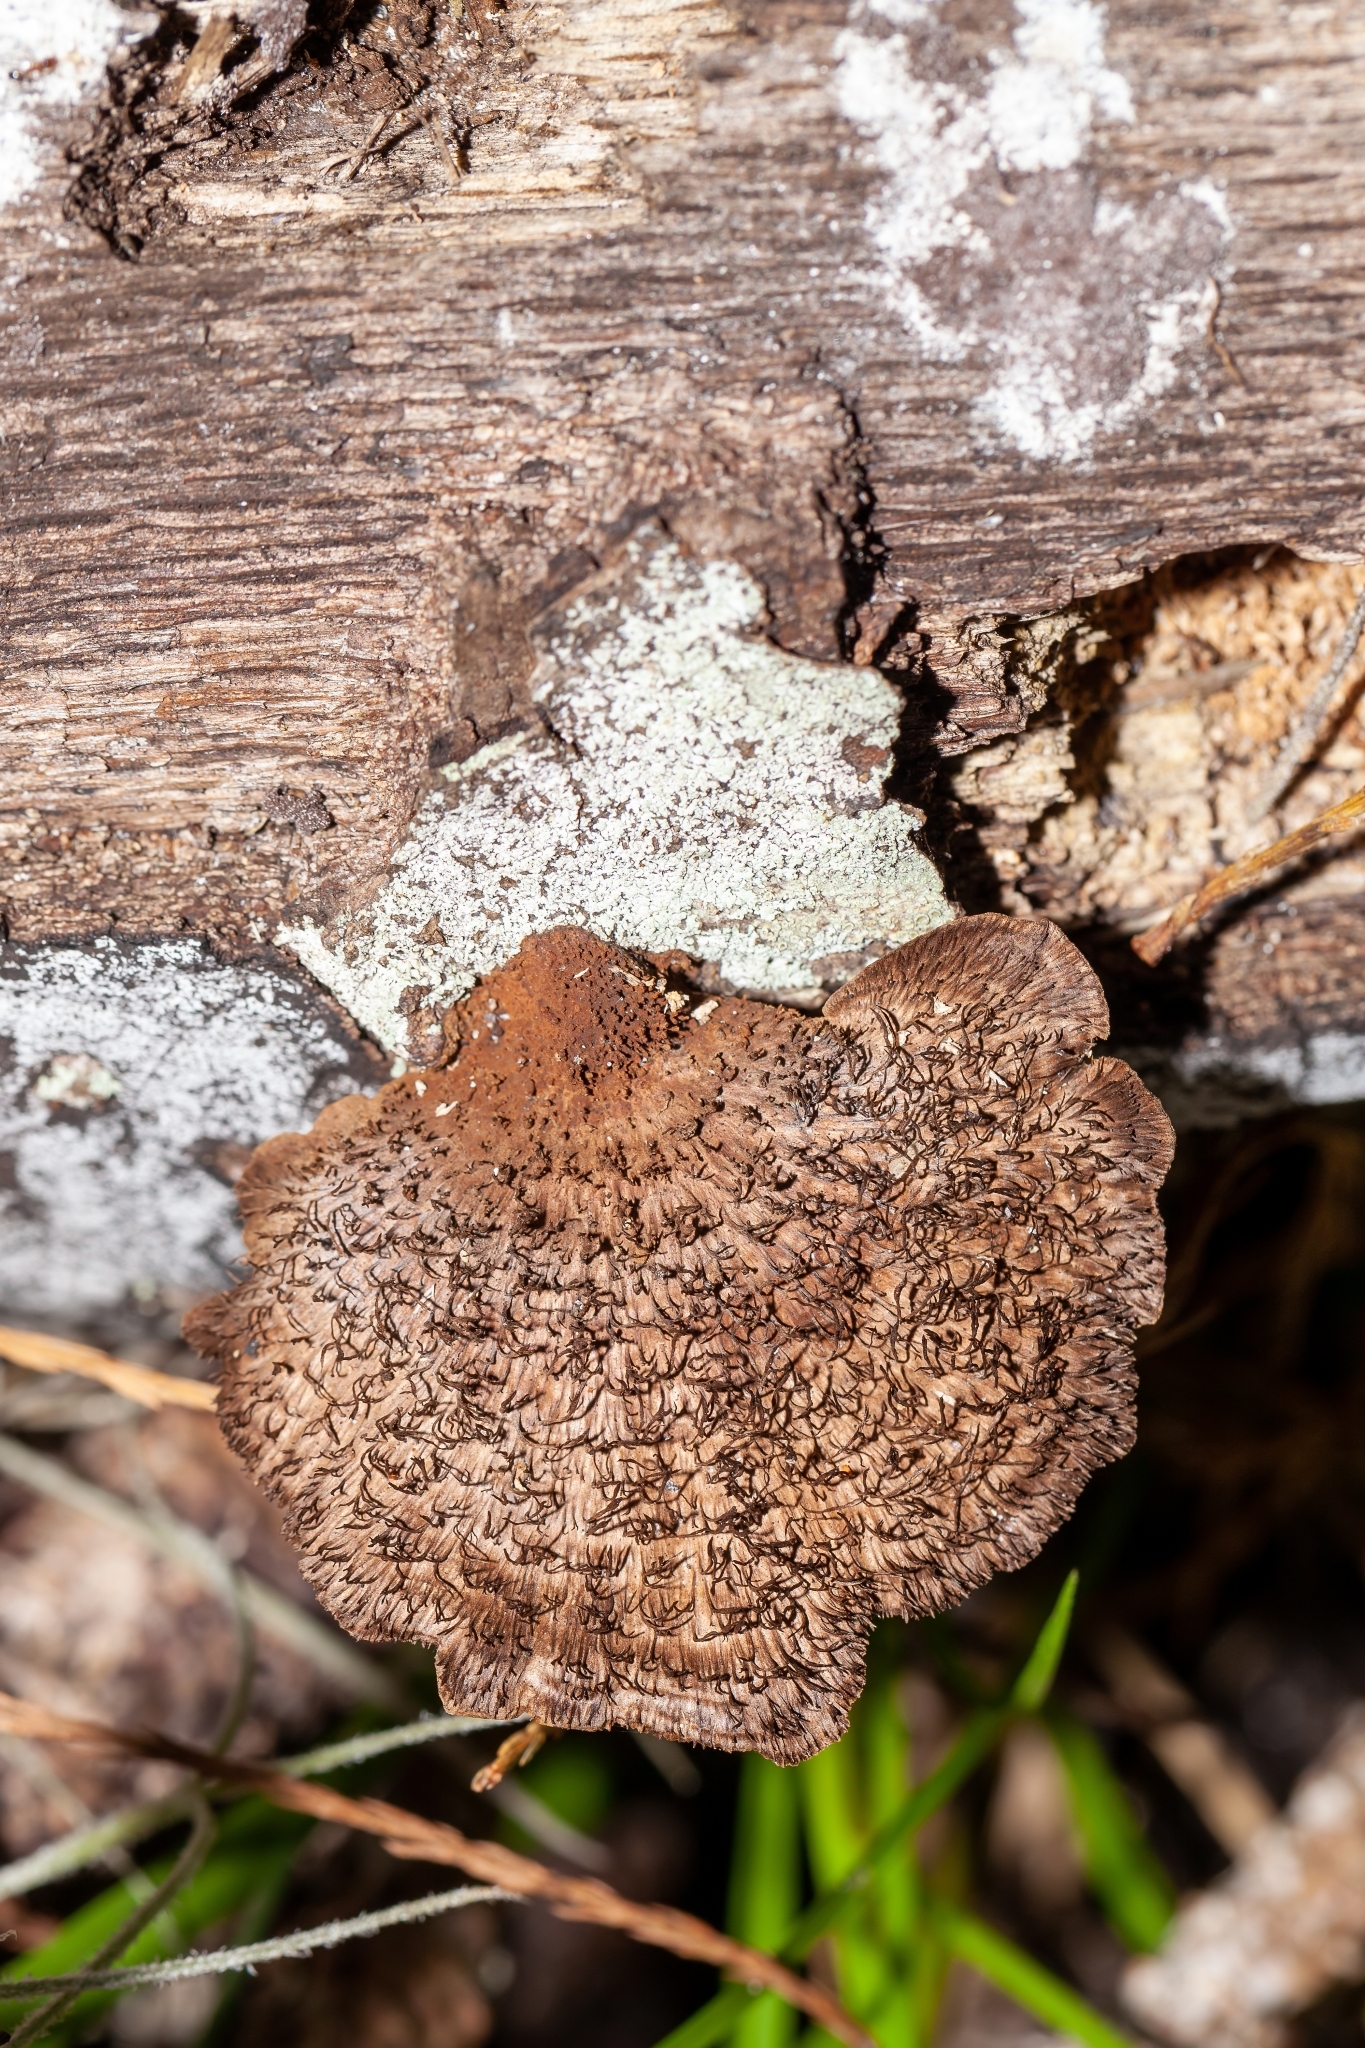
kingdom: Fungi
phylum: Basidiomycota
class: Agaricomycetes
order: Polyporales
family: Cerrenaceae
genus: Cerrena
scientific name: Cerrena hydnoides
